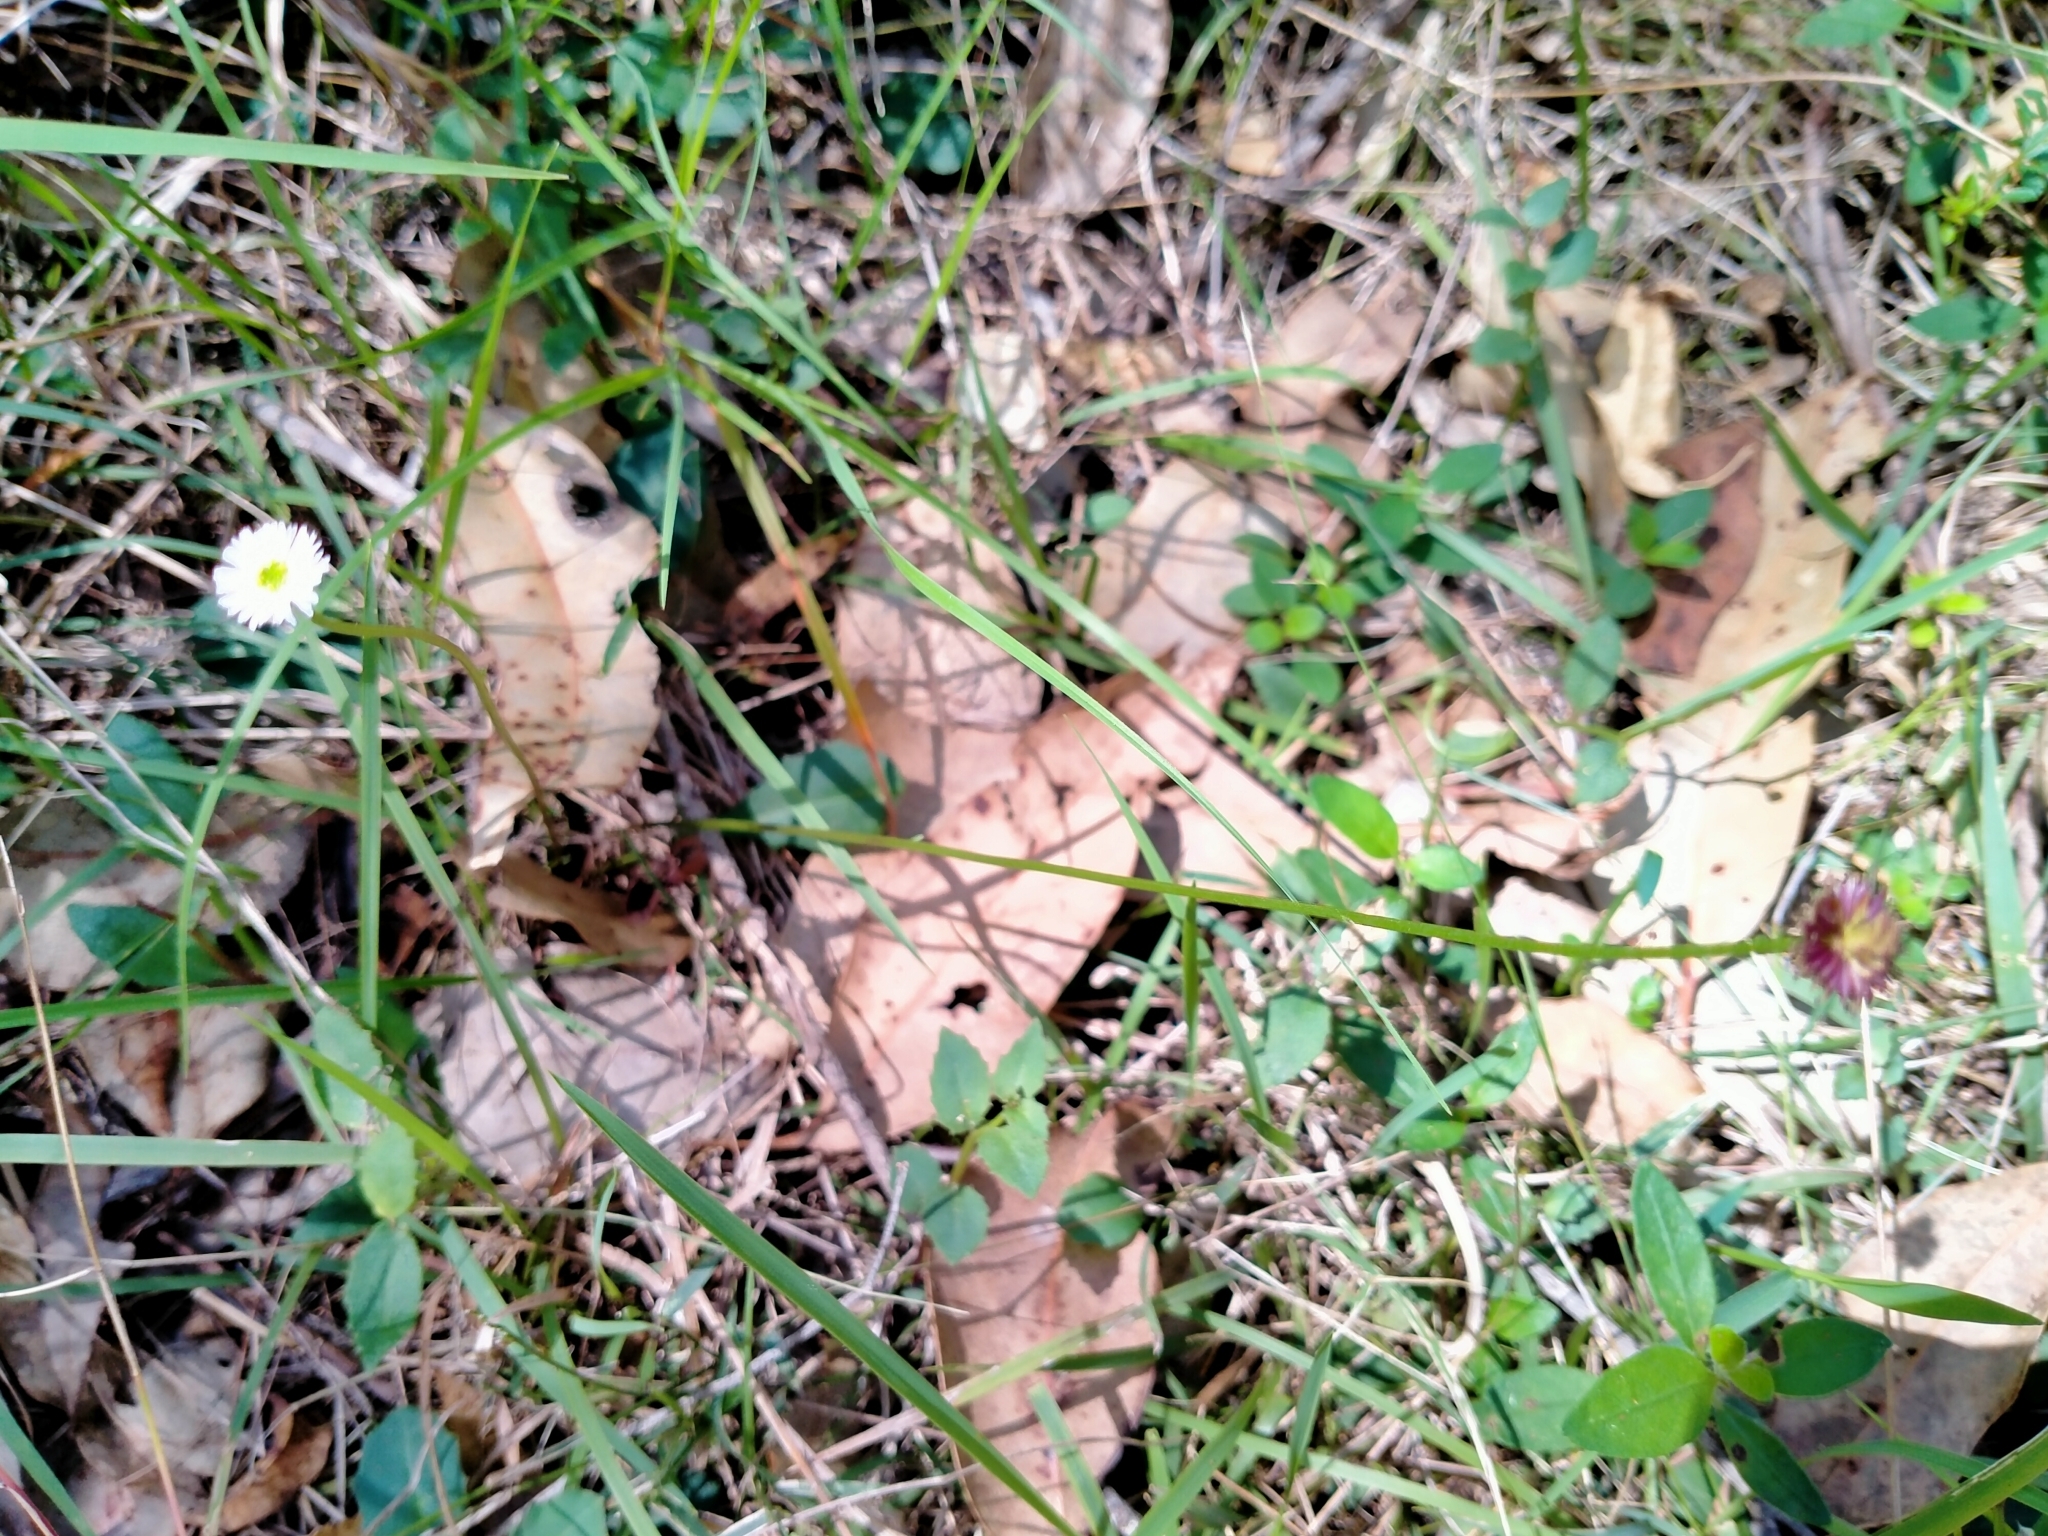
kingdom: Plantae
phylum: Tracheophyta
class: Magnoliopsida
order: Asterales
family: Asteraceae
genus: Lagenophora
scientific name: Lagenophora sublyrata ter
